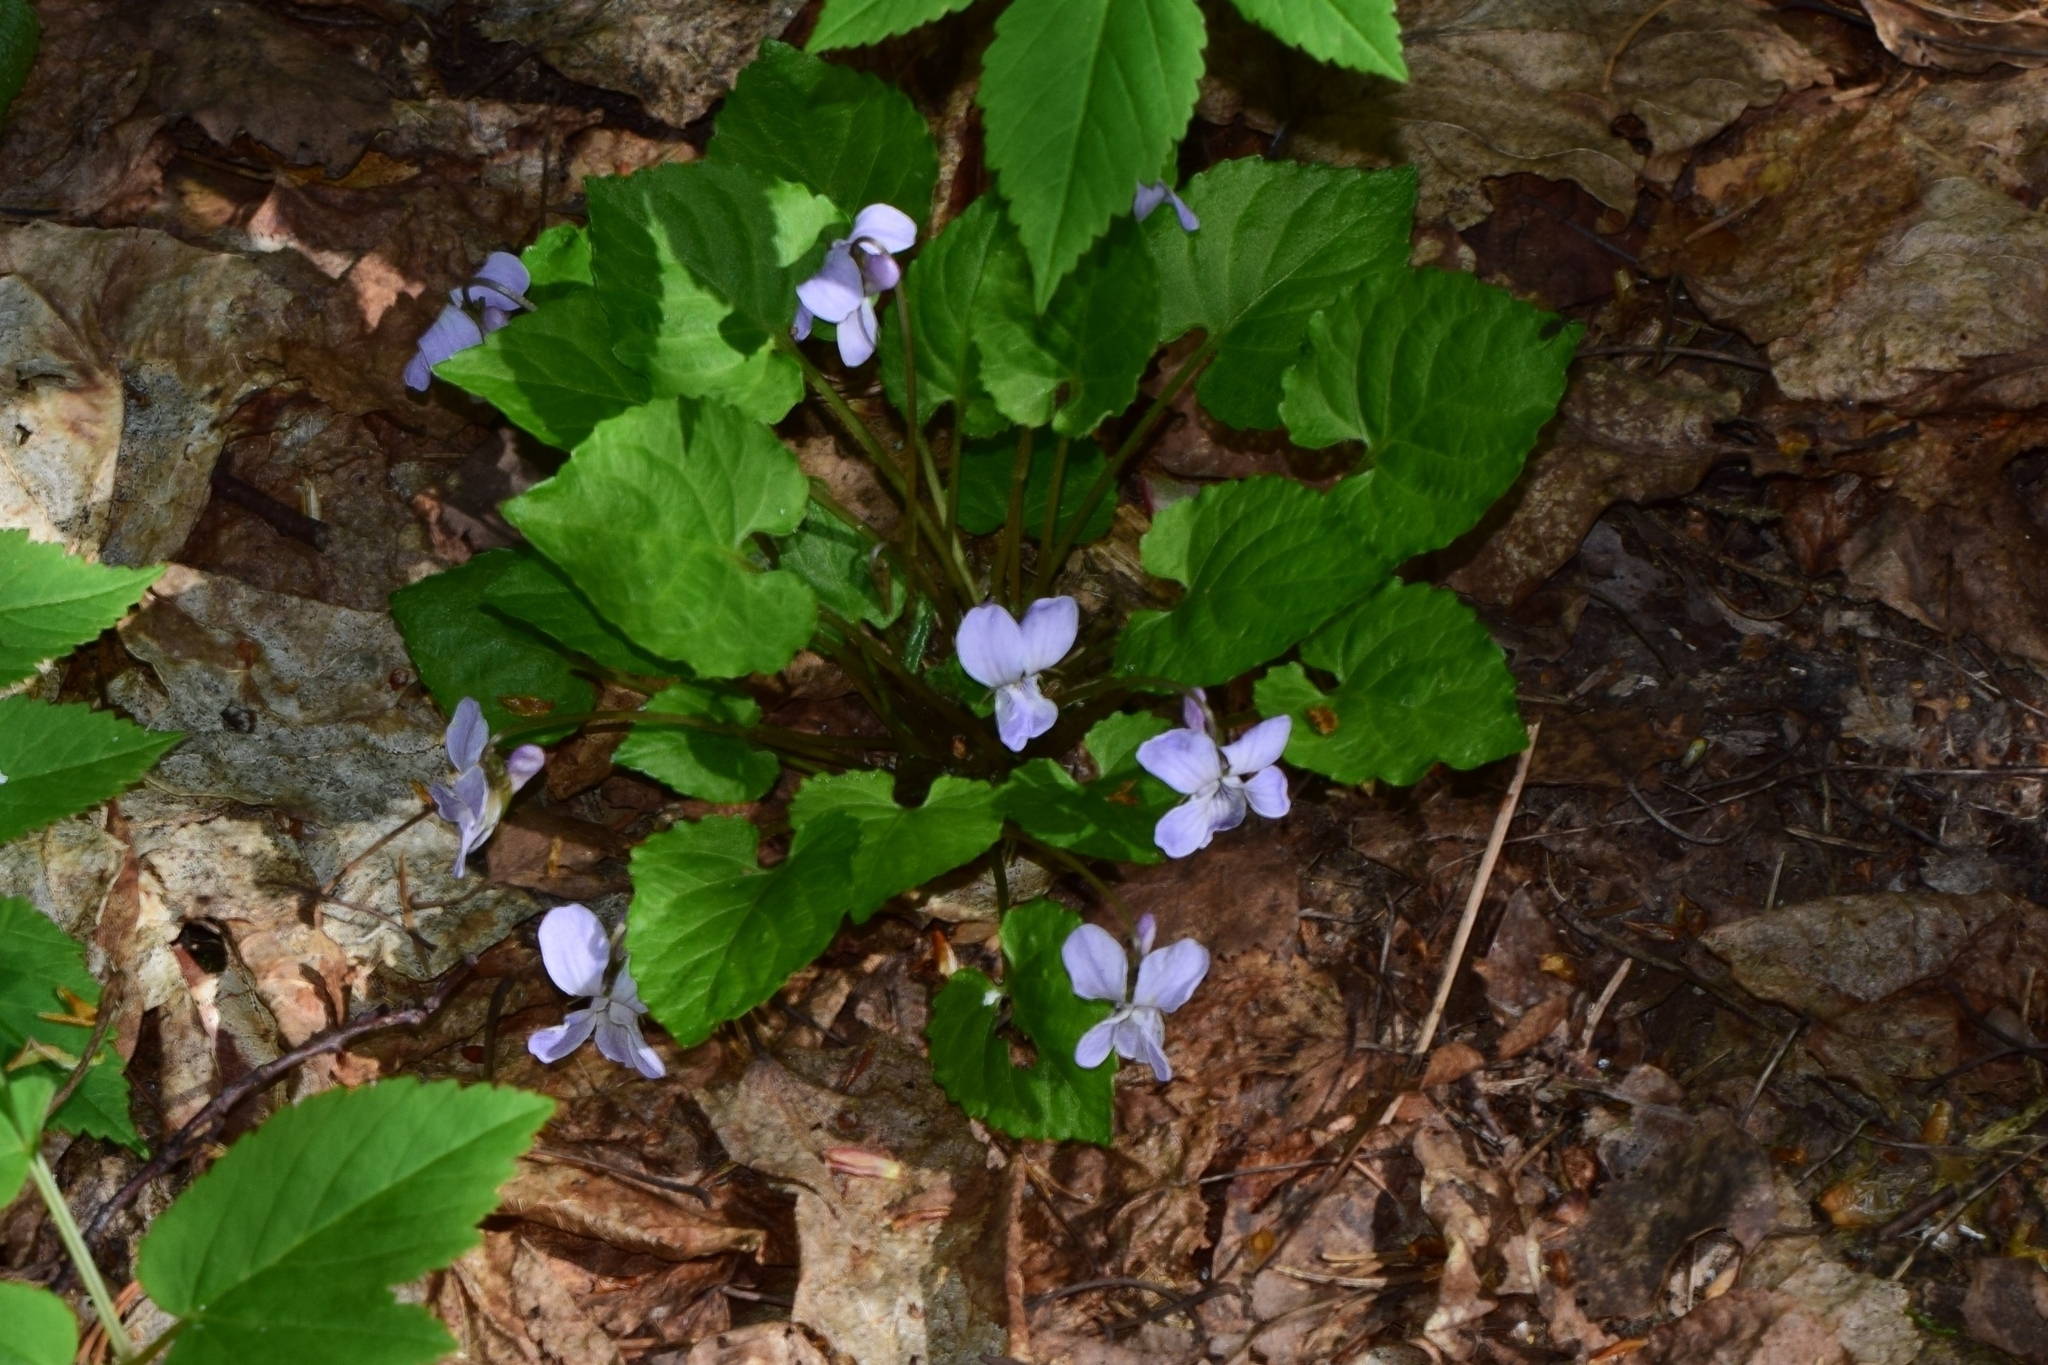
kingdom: Plantae
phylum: Tracheophyta
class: Magnoliopsida
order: Malpighiales
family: Violaceae
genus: Viola
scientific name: Viola selkirkii
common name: Selkirk's violet
